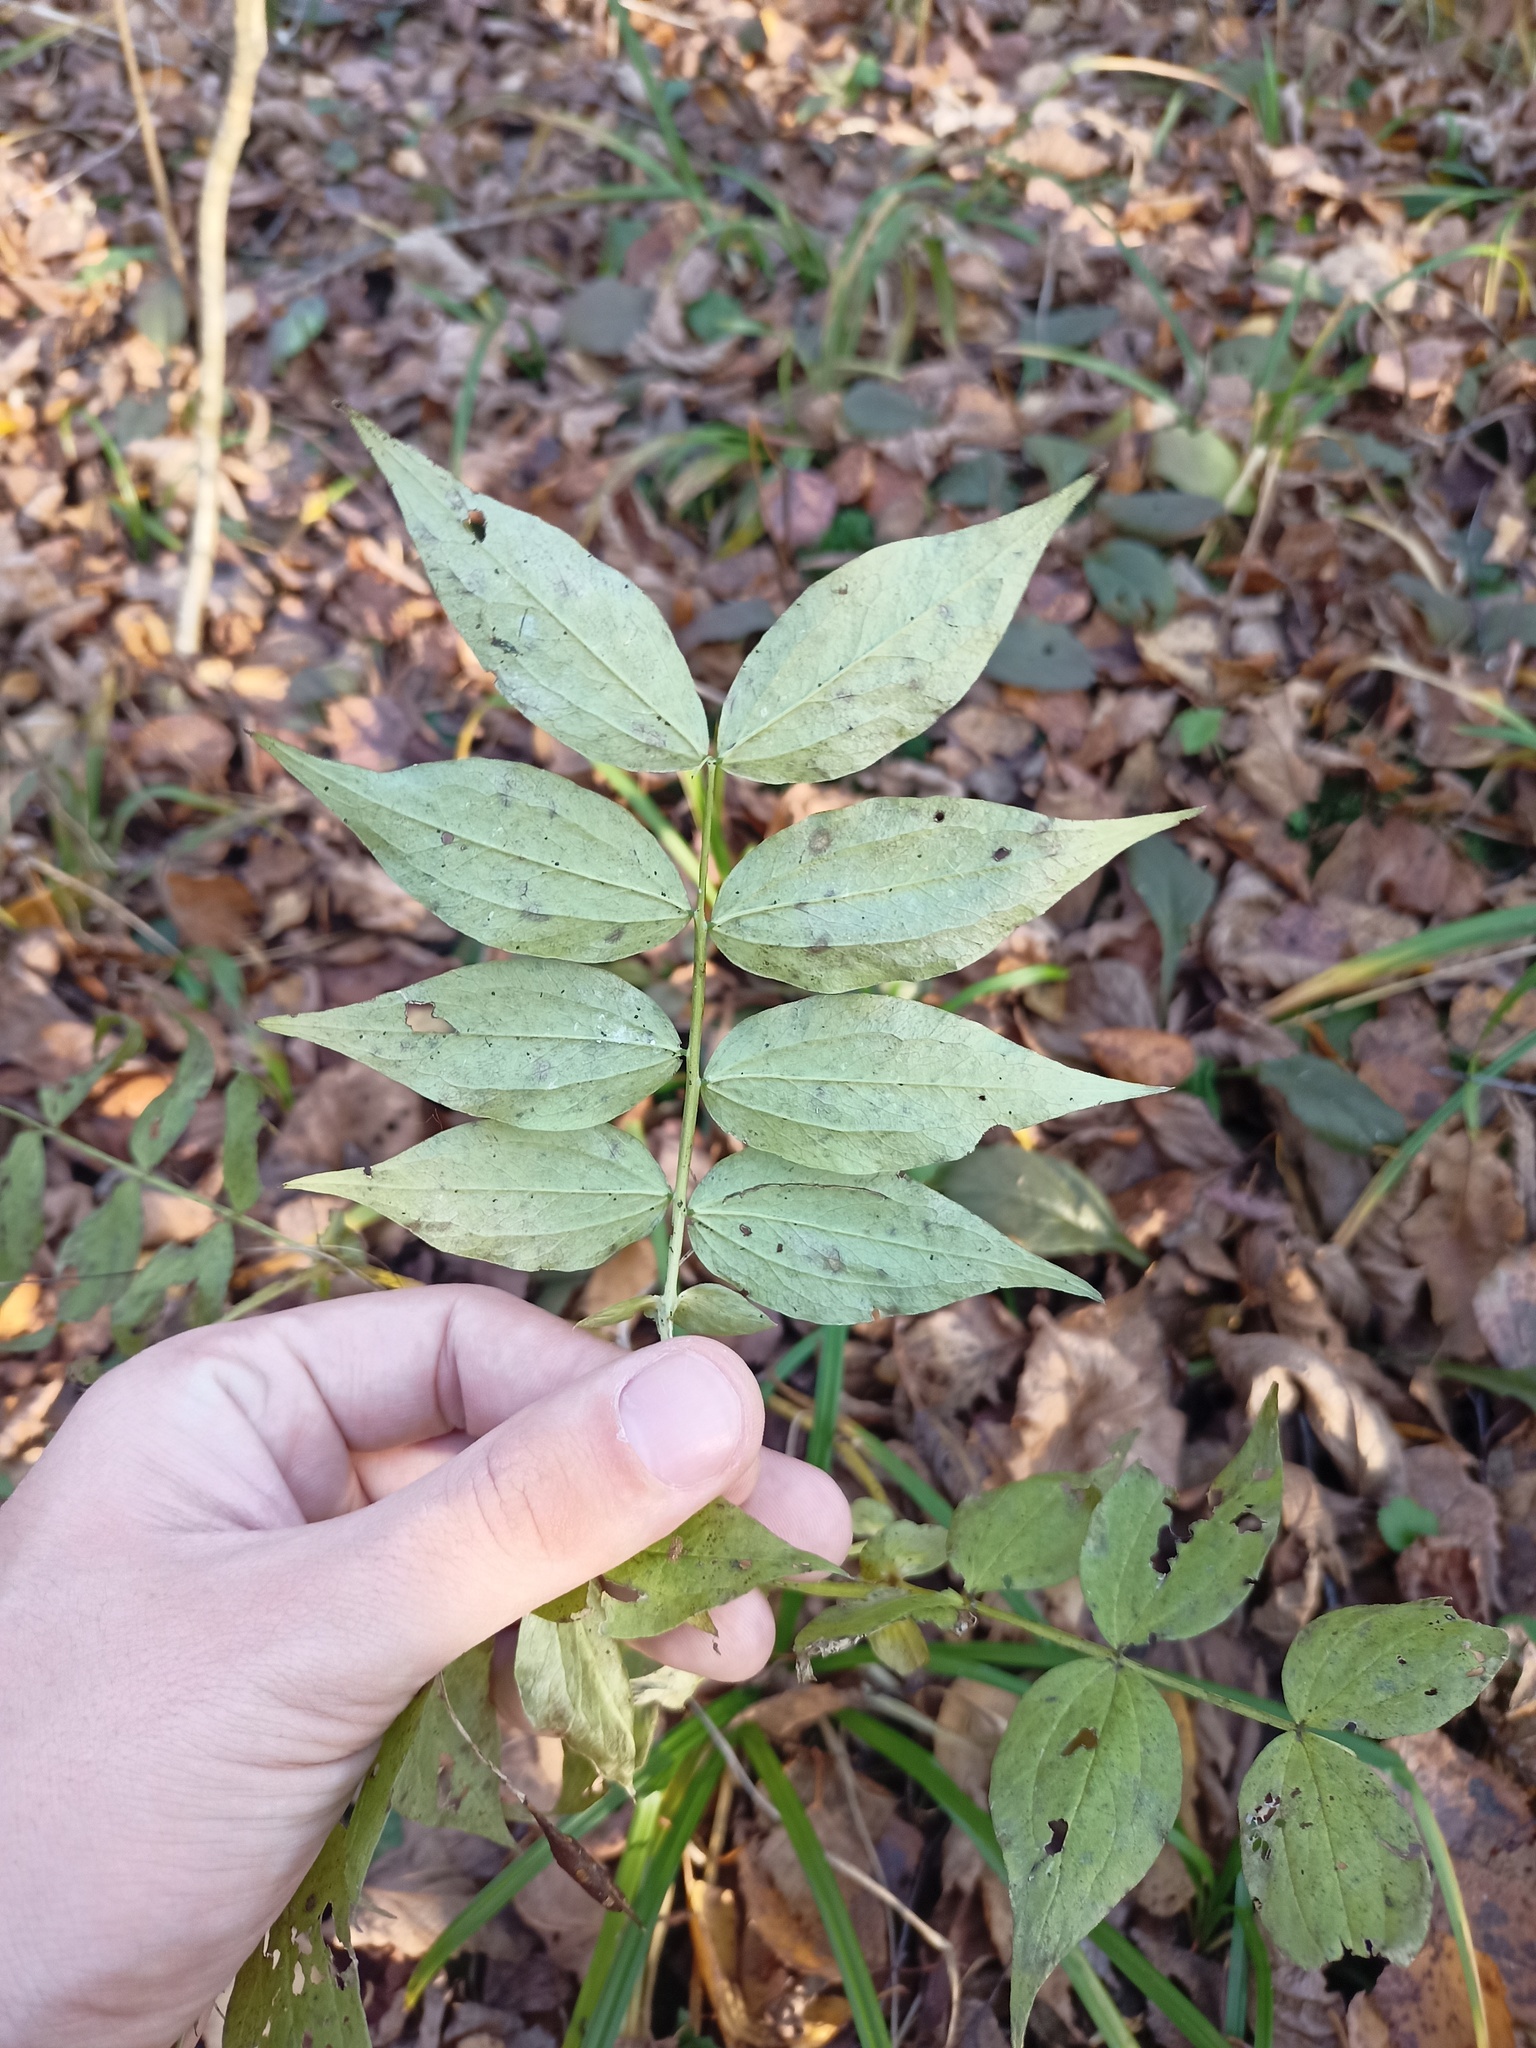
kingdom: Plantae
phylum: Tracheophyta
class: Magnoliopsida
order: Fabales
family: Fabaceae
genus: Lathyrus
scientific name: Lathyrus vernus
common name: Spring pea
